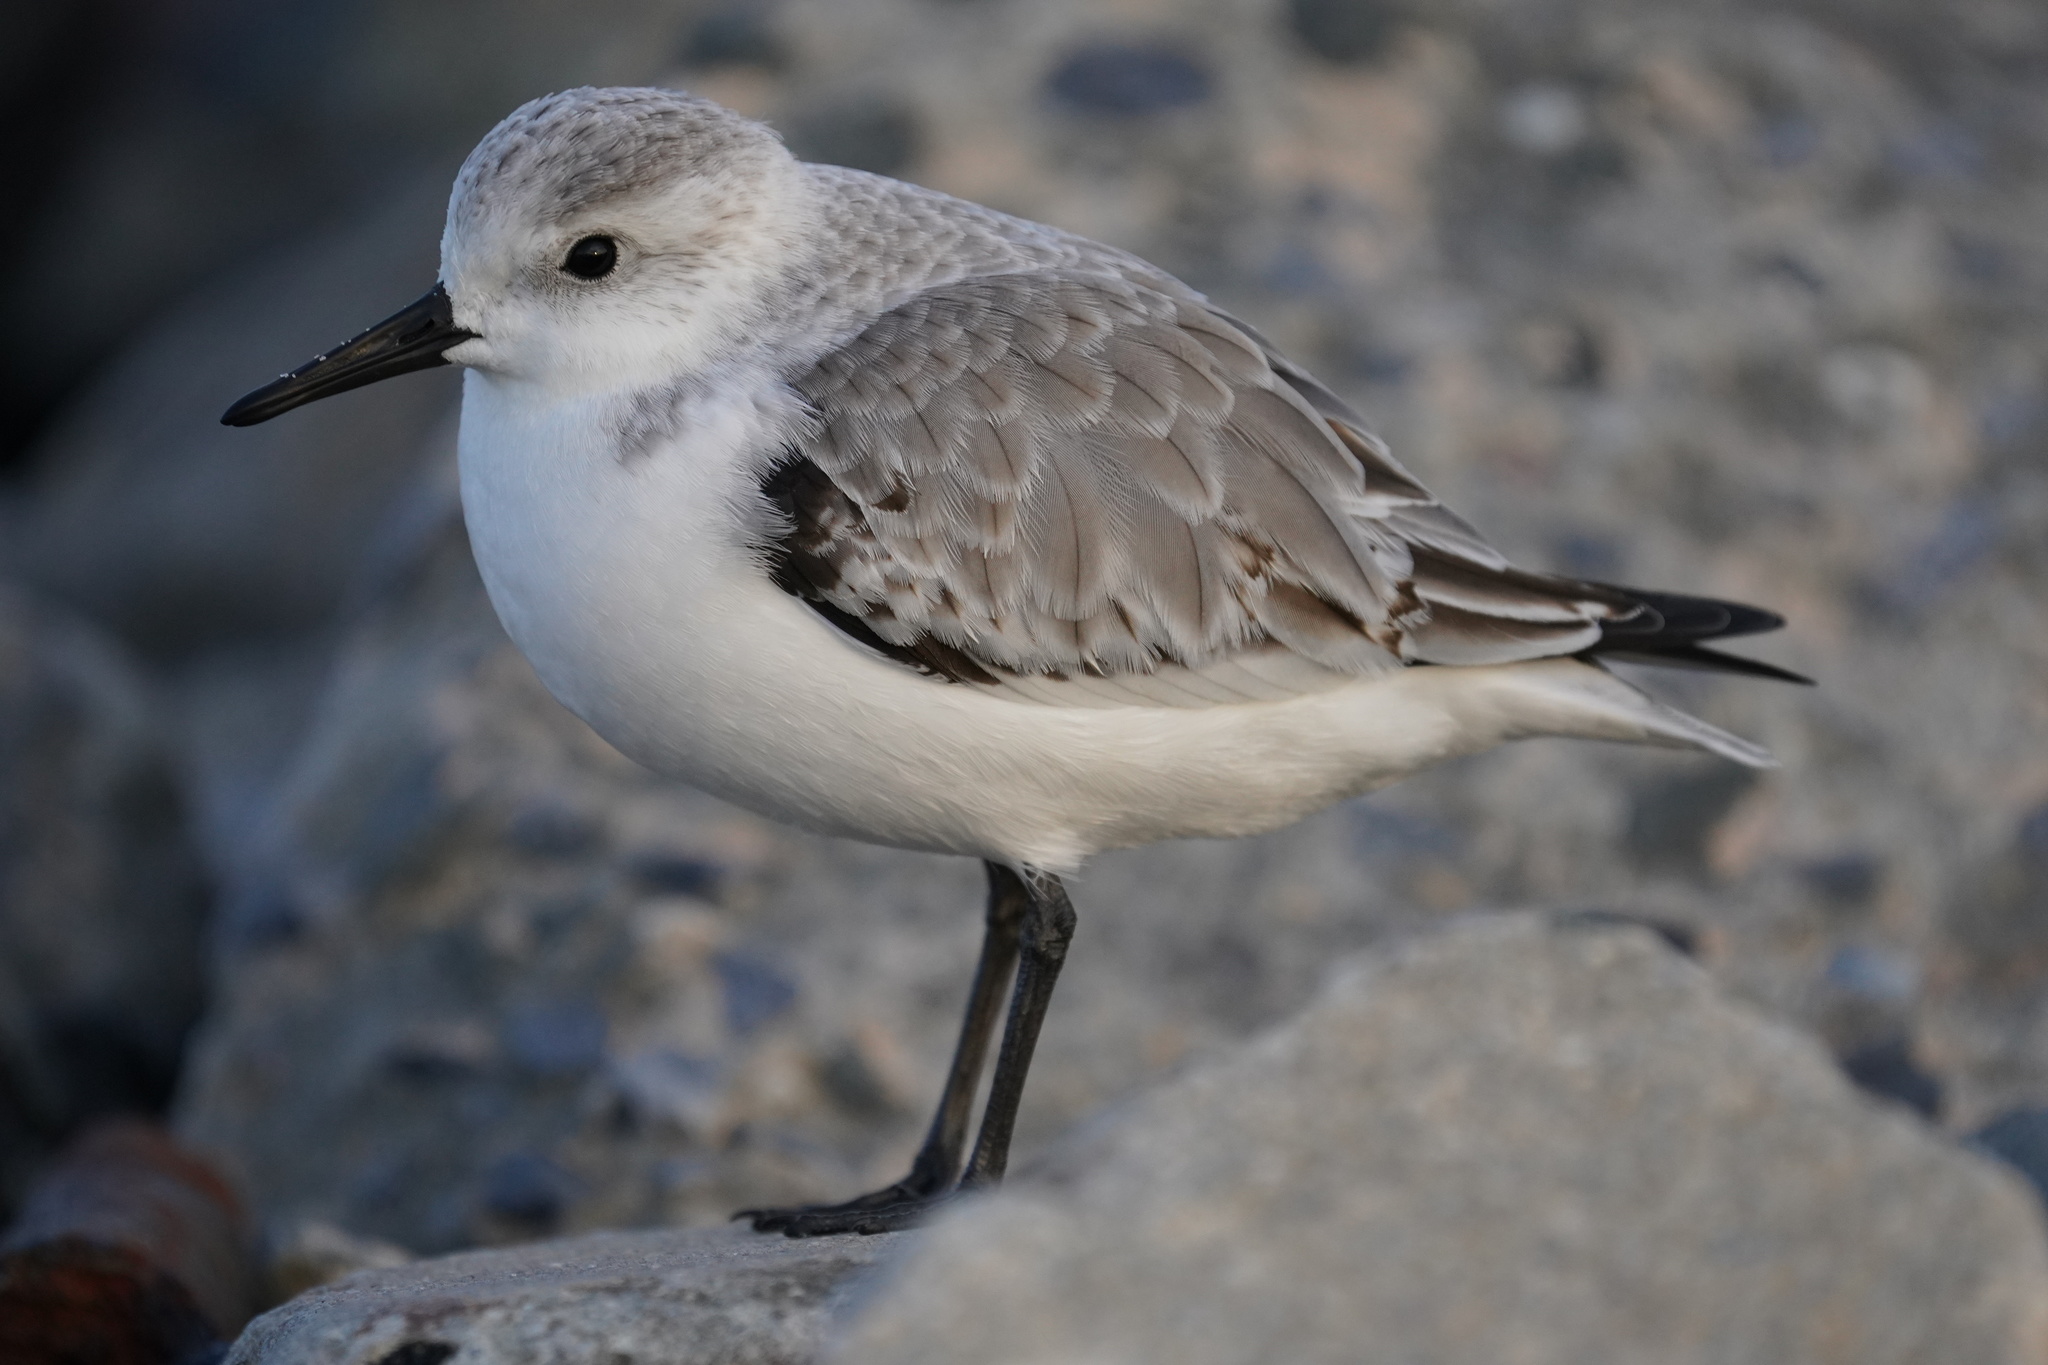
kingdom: Animalia
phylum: Chordata
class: Aves
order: Charadriiformes
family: Scolopacidae
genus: Calidris
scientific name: Calidris alba
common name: Sanderling
